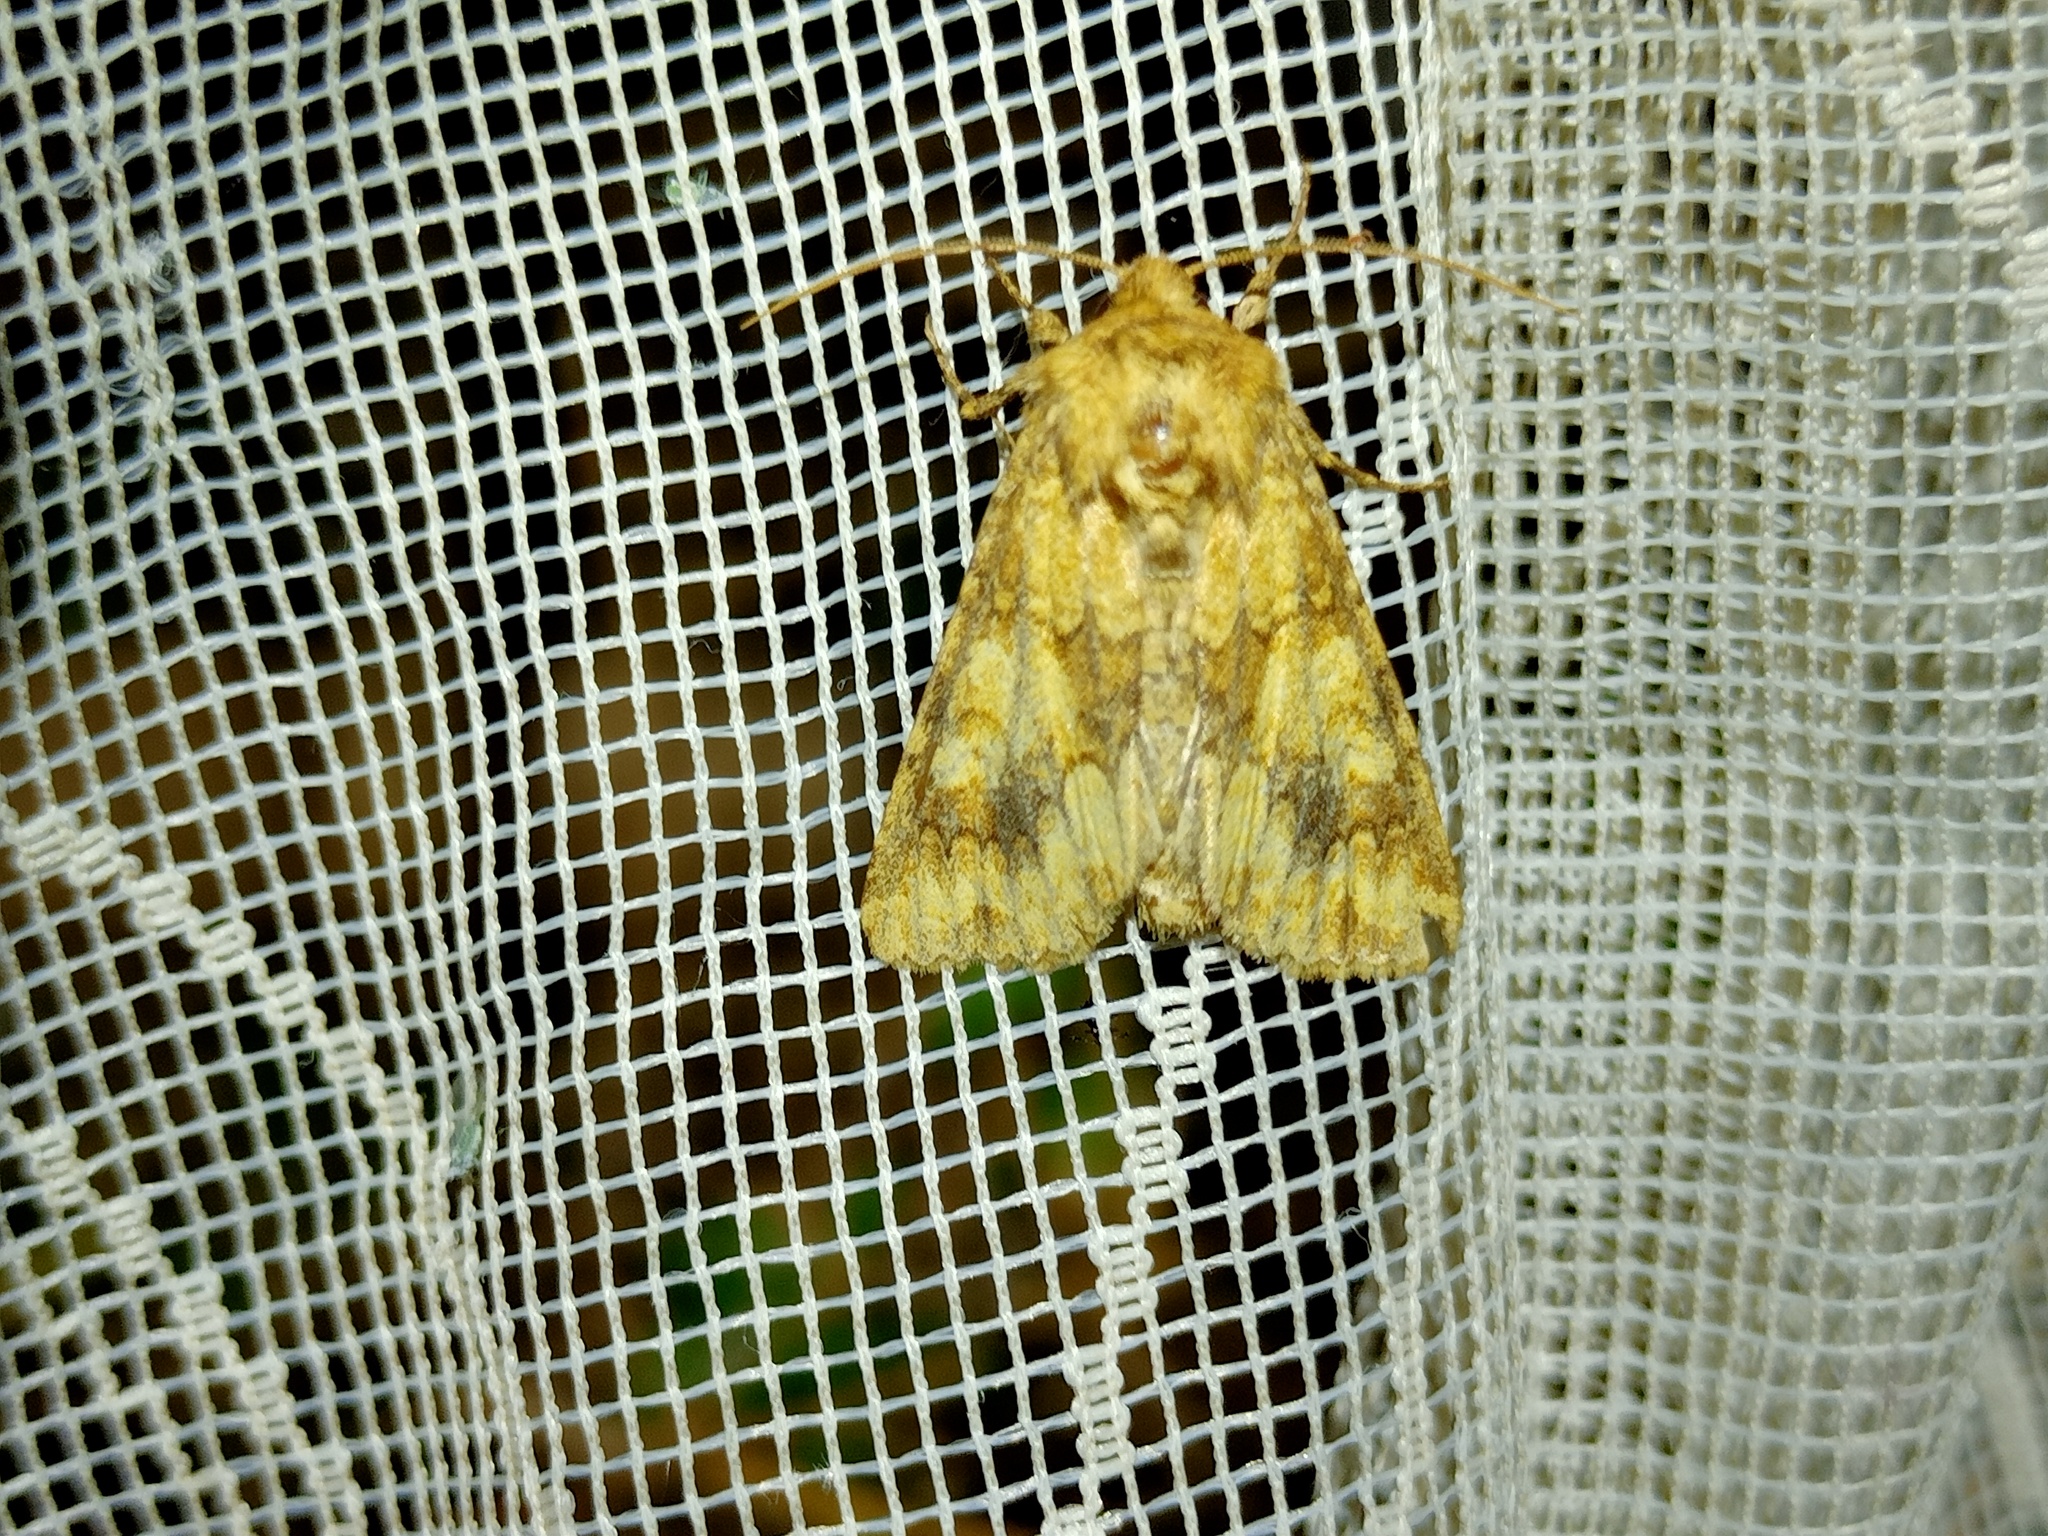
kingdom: Animalia
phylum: Arthropoda
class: Insecta
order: Lepidoptera
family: Noctuidae
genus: Conisania
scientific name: Conisania luteago
